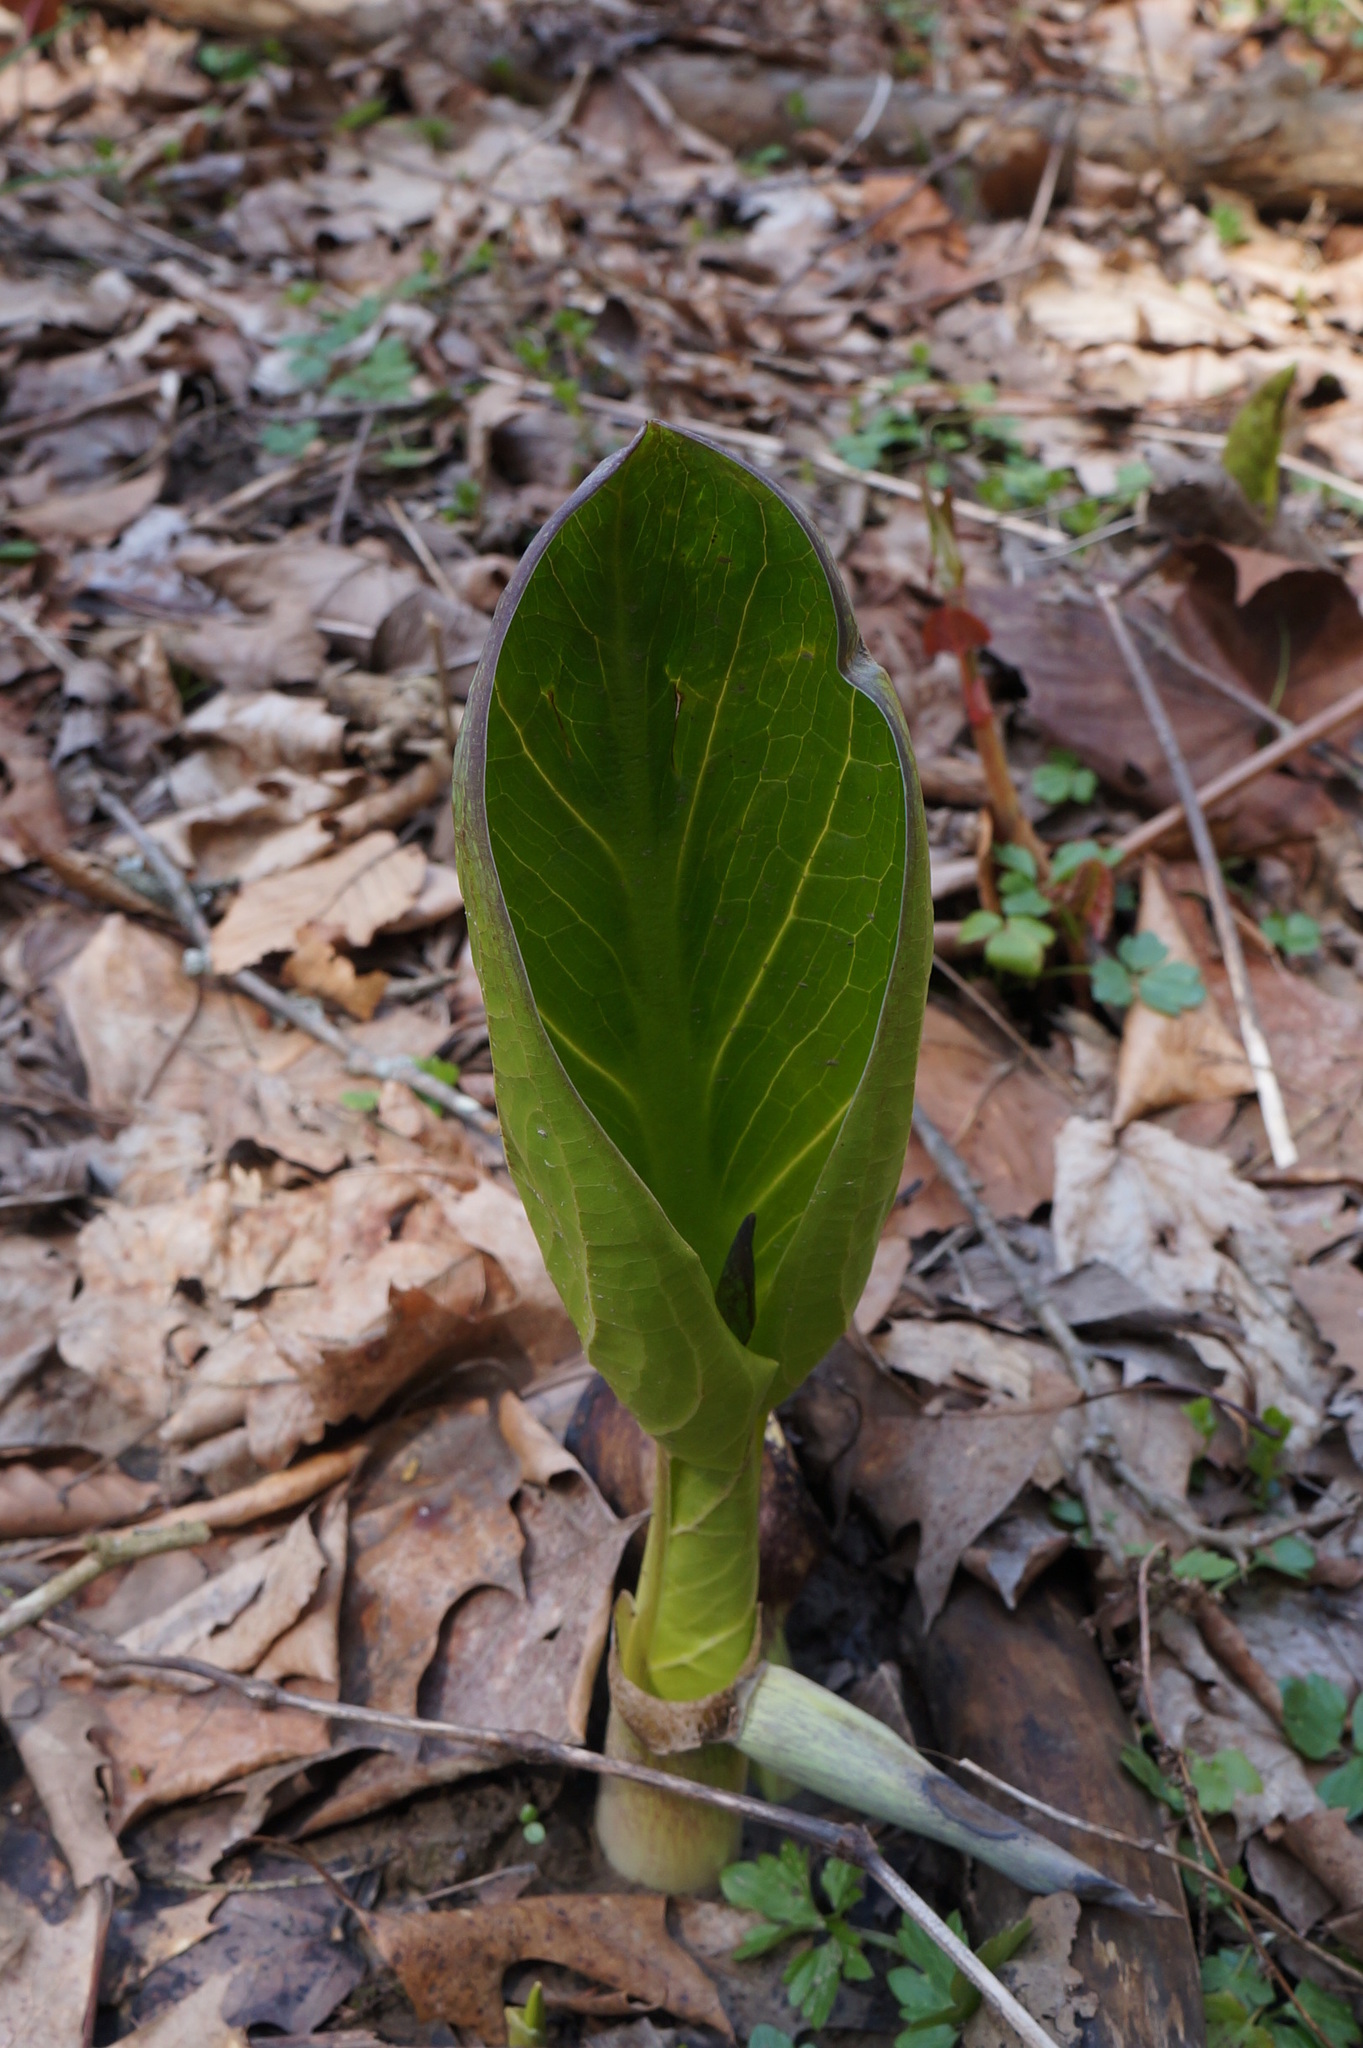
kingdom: Plantae
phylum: Tracheophyta
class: Liliopsida
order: Alismatales
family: Araceae
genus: Symplocarpus
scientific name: Symplocarpus foetidus
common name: Eastern skunk cabbage
